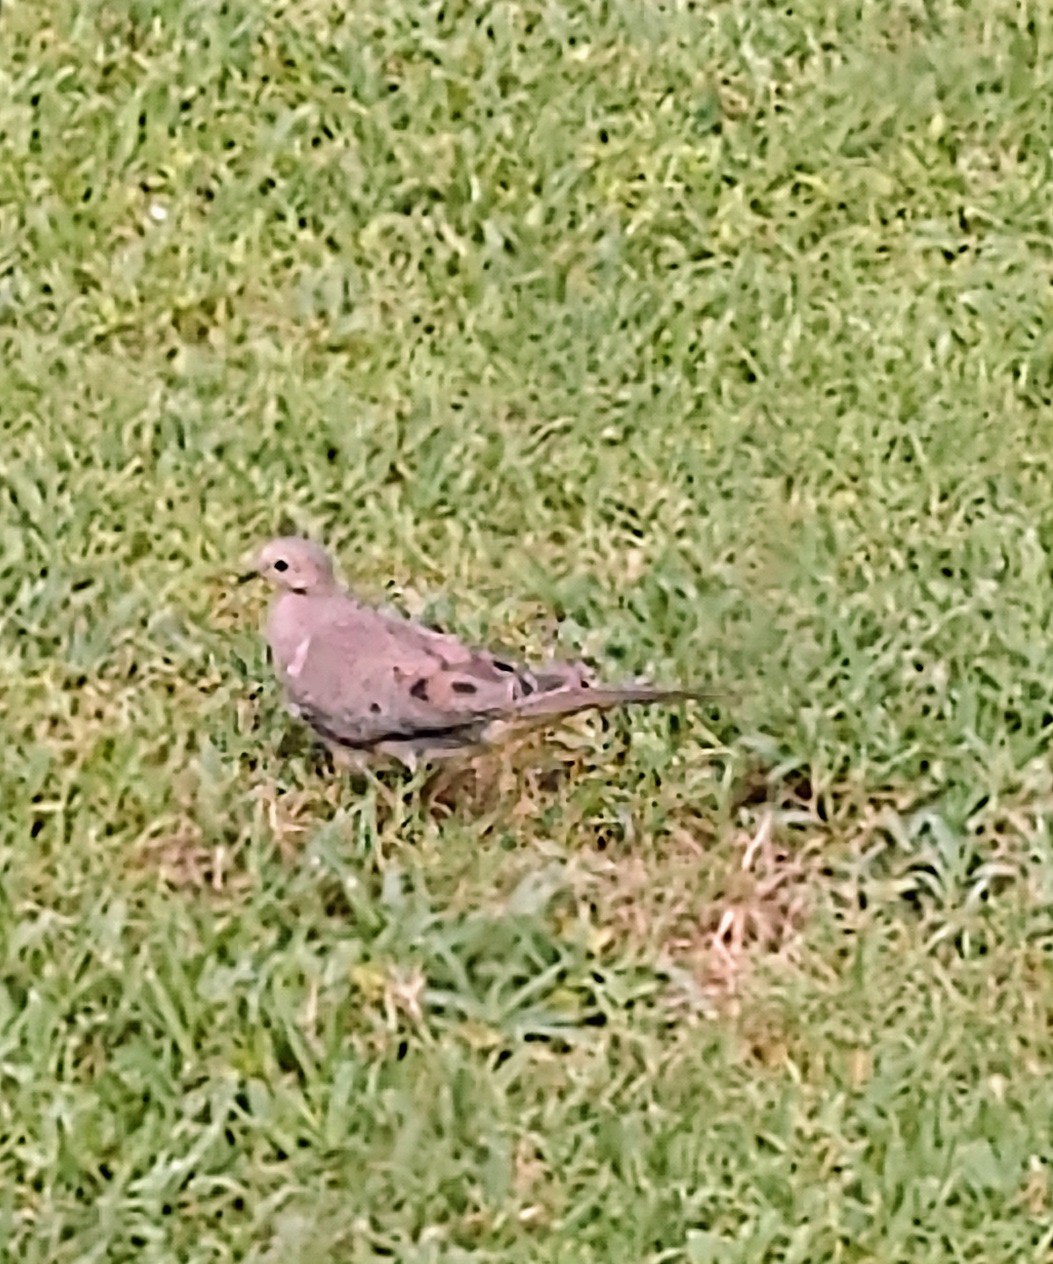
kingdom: Animalia
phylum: Chordata
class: Aves
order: Columbiformes
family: Columbidae
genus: Zenaida
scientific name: Zenaida macroura
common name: Mourning dove
